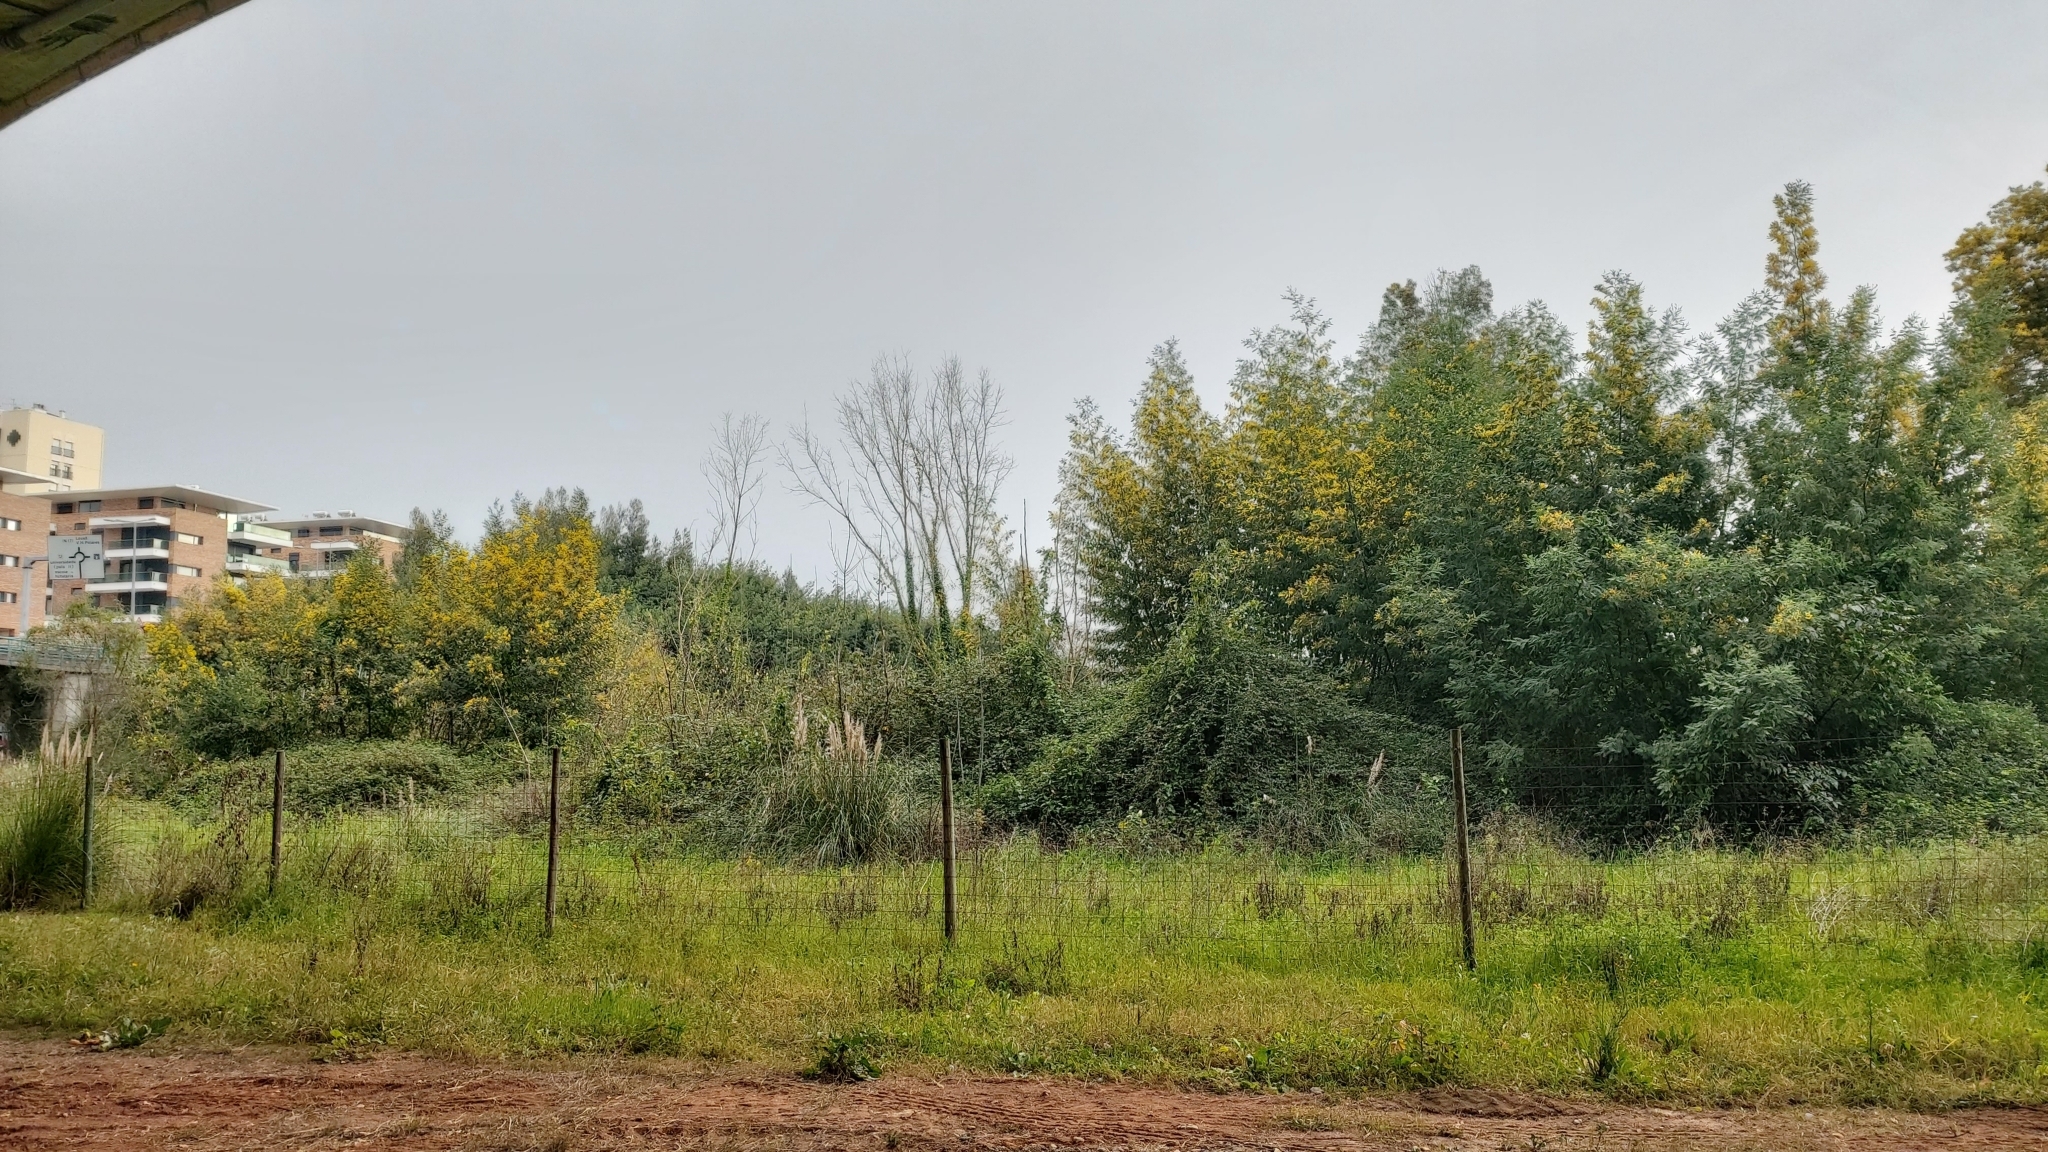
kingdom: Plantae
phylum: Tracheophyta
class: Magnoliopsida
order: Fabales
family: Fabaceae
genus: Acacia
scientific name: Acacia dealbata
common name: Silver wattle
